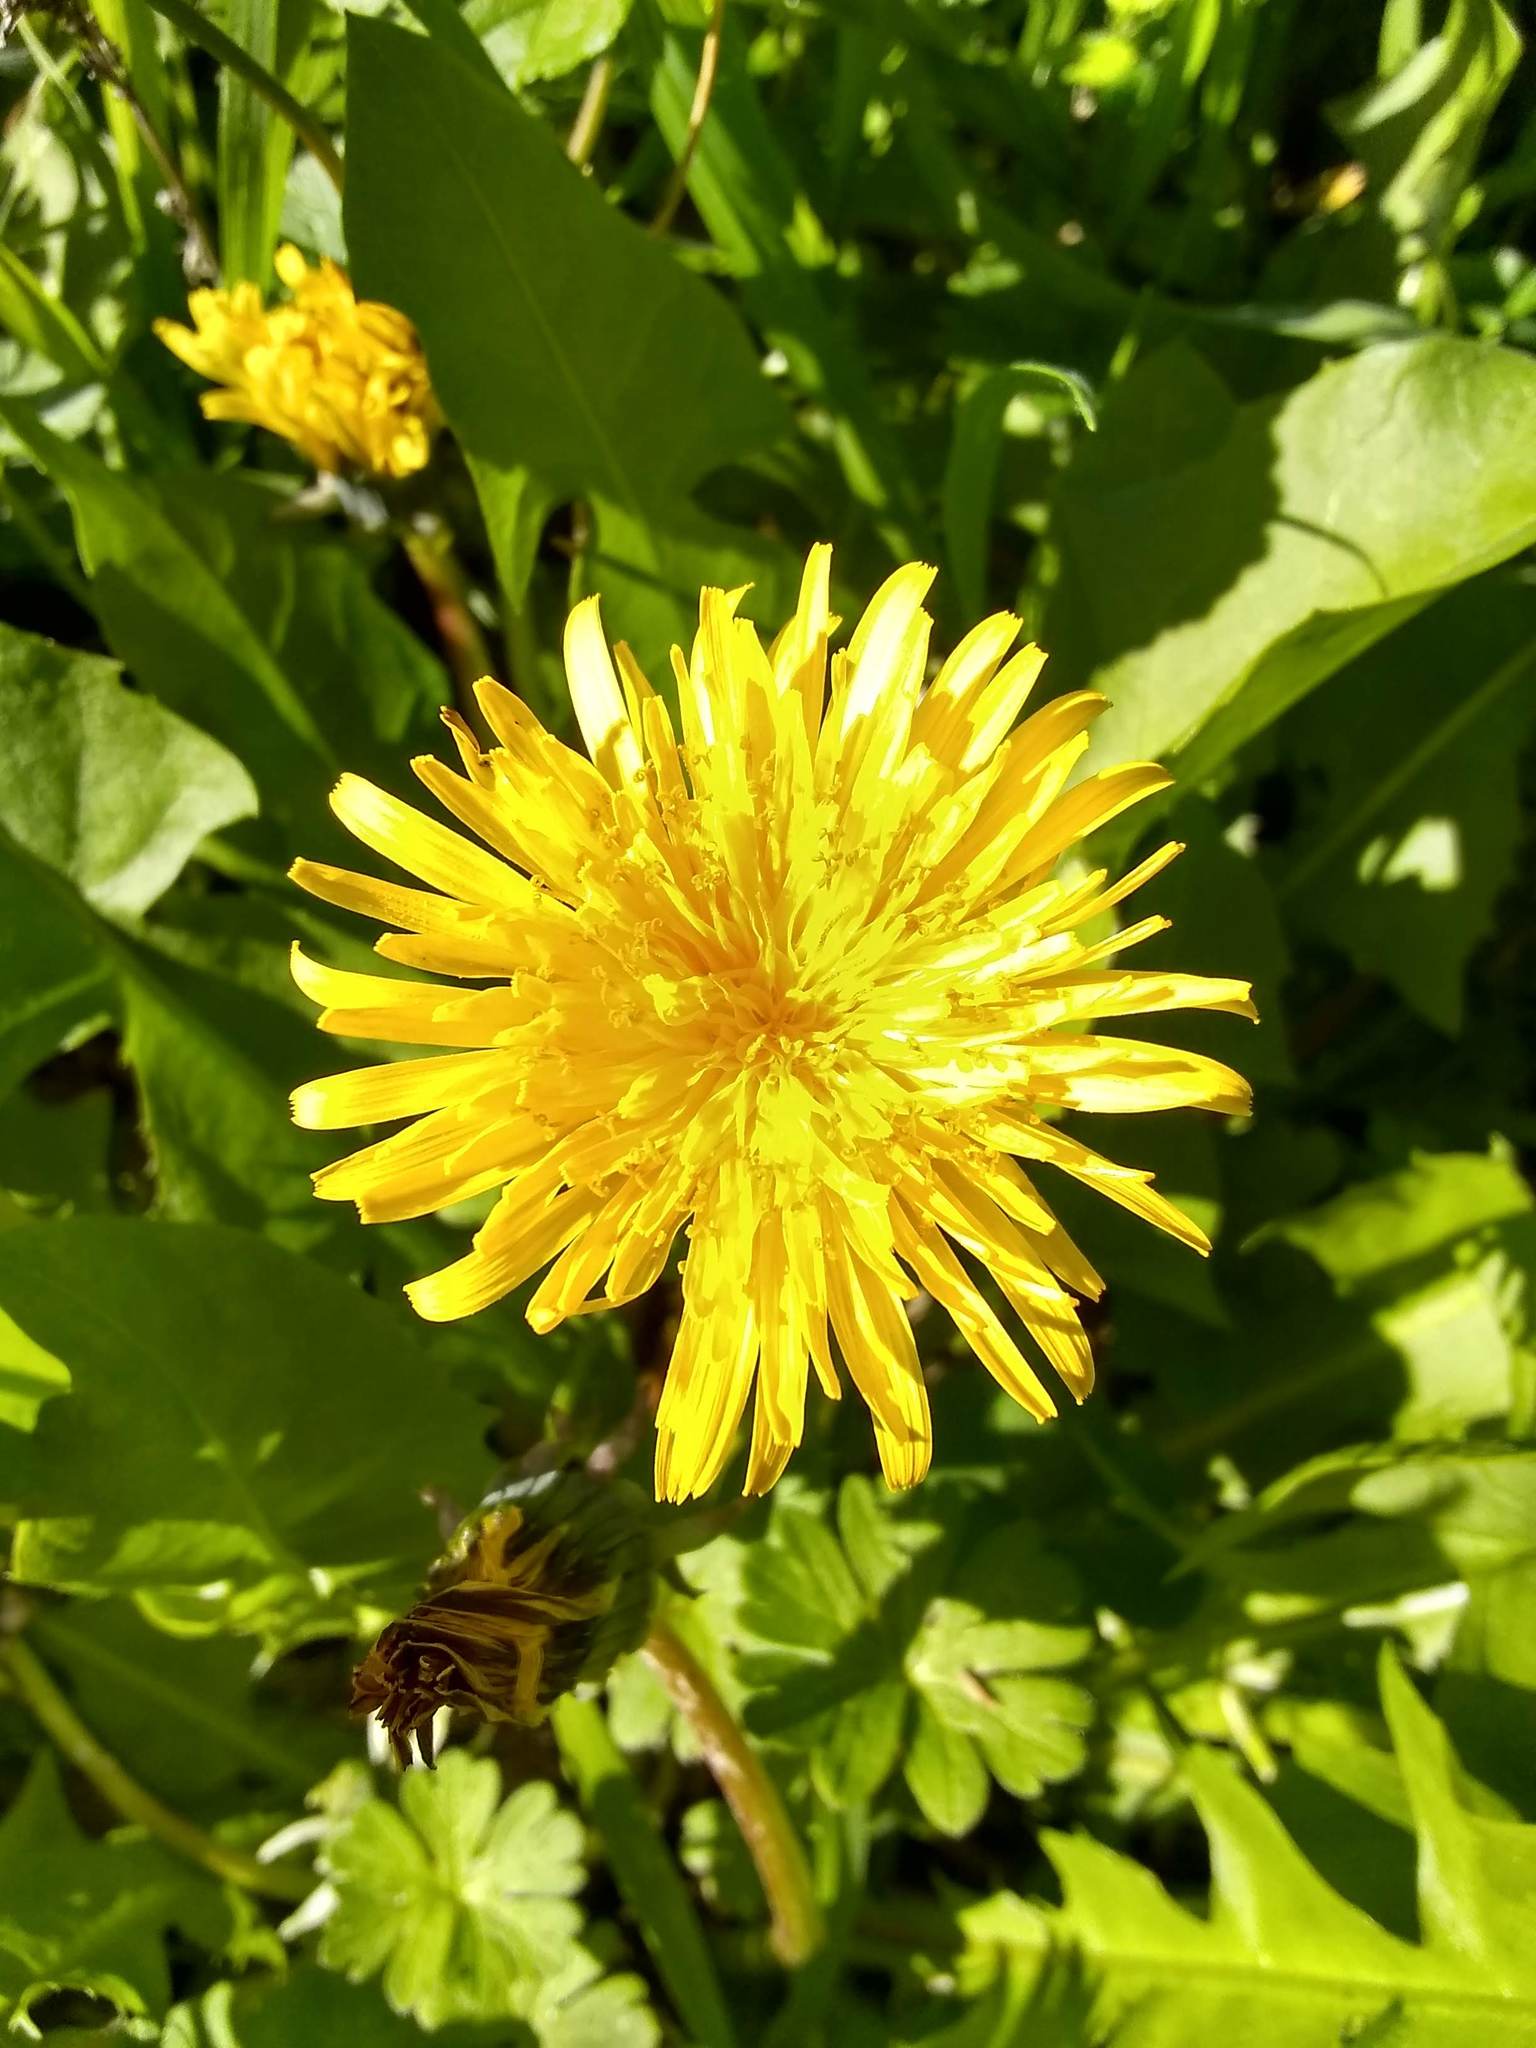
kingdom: Plantae
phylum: Tracheophyta
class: Magnoliopsida
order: Asterales
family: Asteraceae
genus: Taraxacum
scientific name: Taraxacum officinale
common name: Common dandelion
